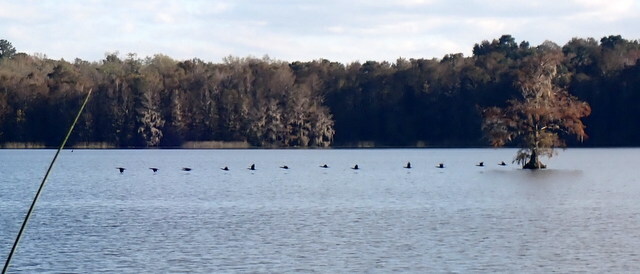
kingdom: Animalia
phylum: Chordata
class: Aves
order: Suliformes
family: Phalacrocoracidae
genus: Phalacrocorax
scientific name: Phalacrocorax auritus
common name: Double-crested cormorant
